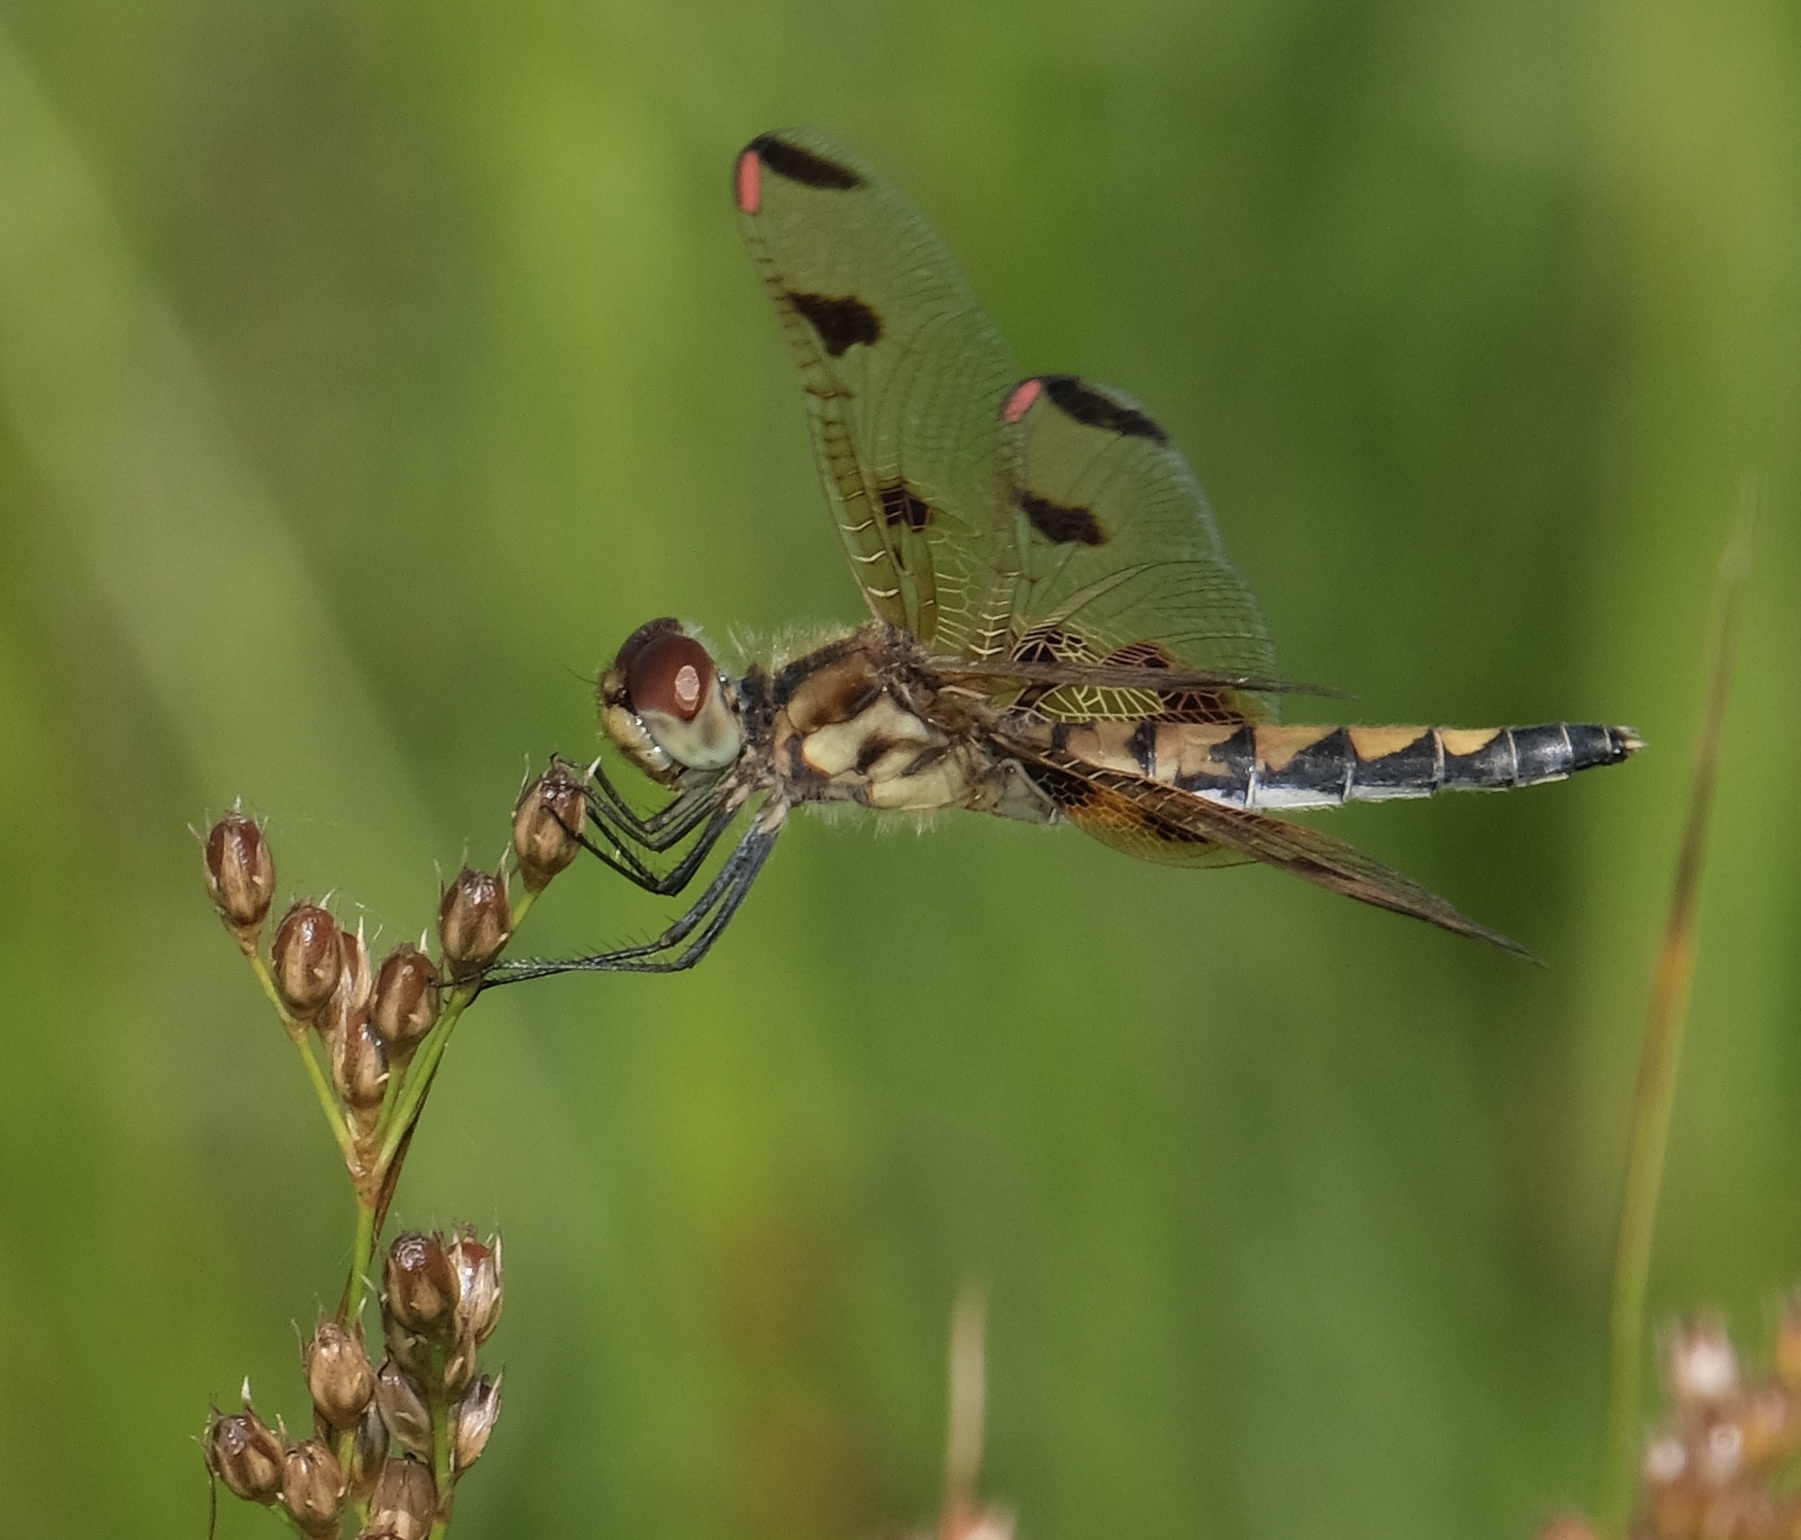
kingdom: Animalia
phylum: Arthropoda
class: Insecta
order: Odonata
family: Libellulidae
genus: Celithemis
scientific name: Celithemis elisa
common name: Calico pennant
